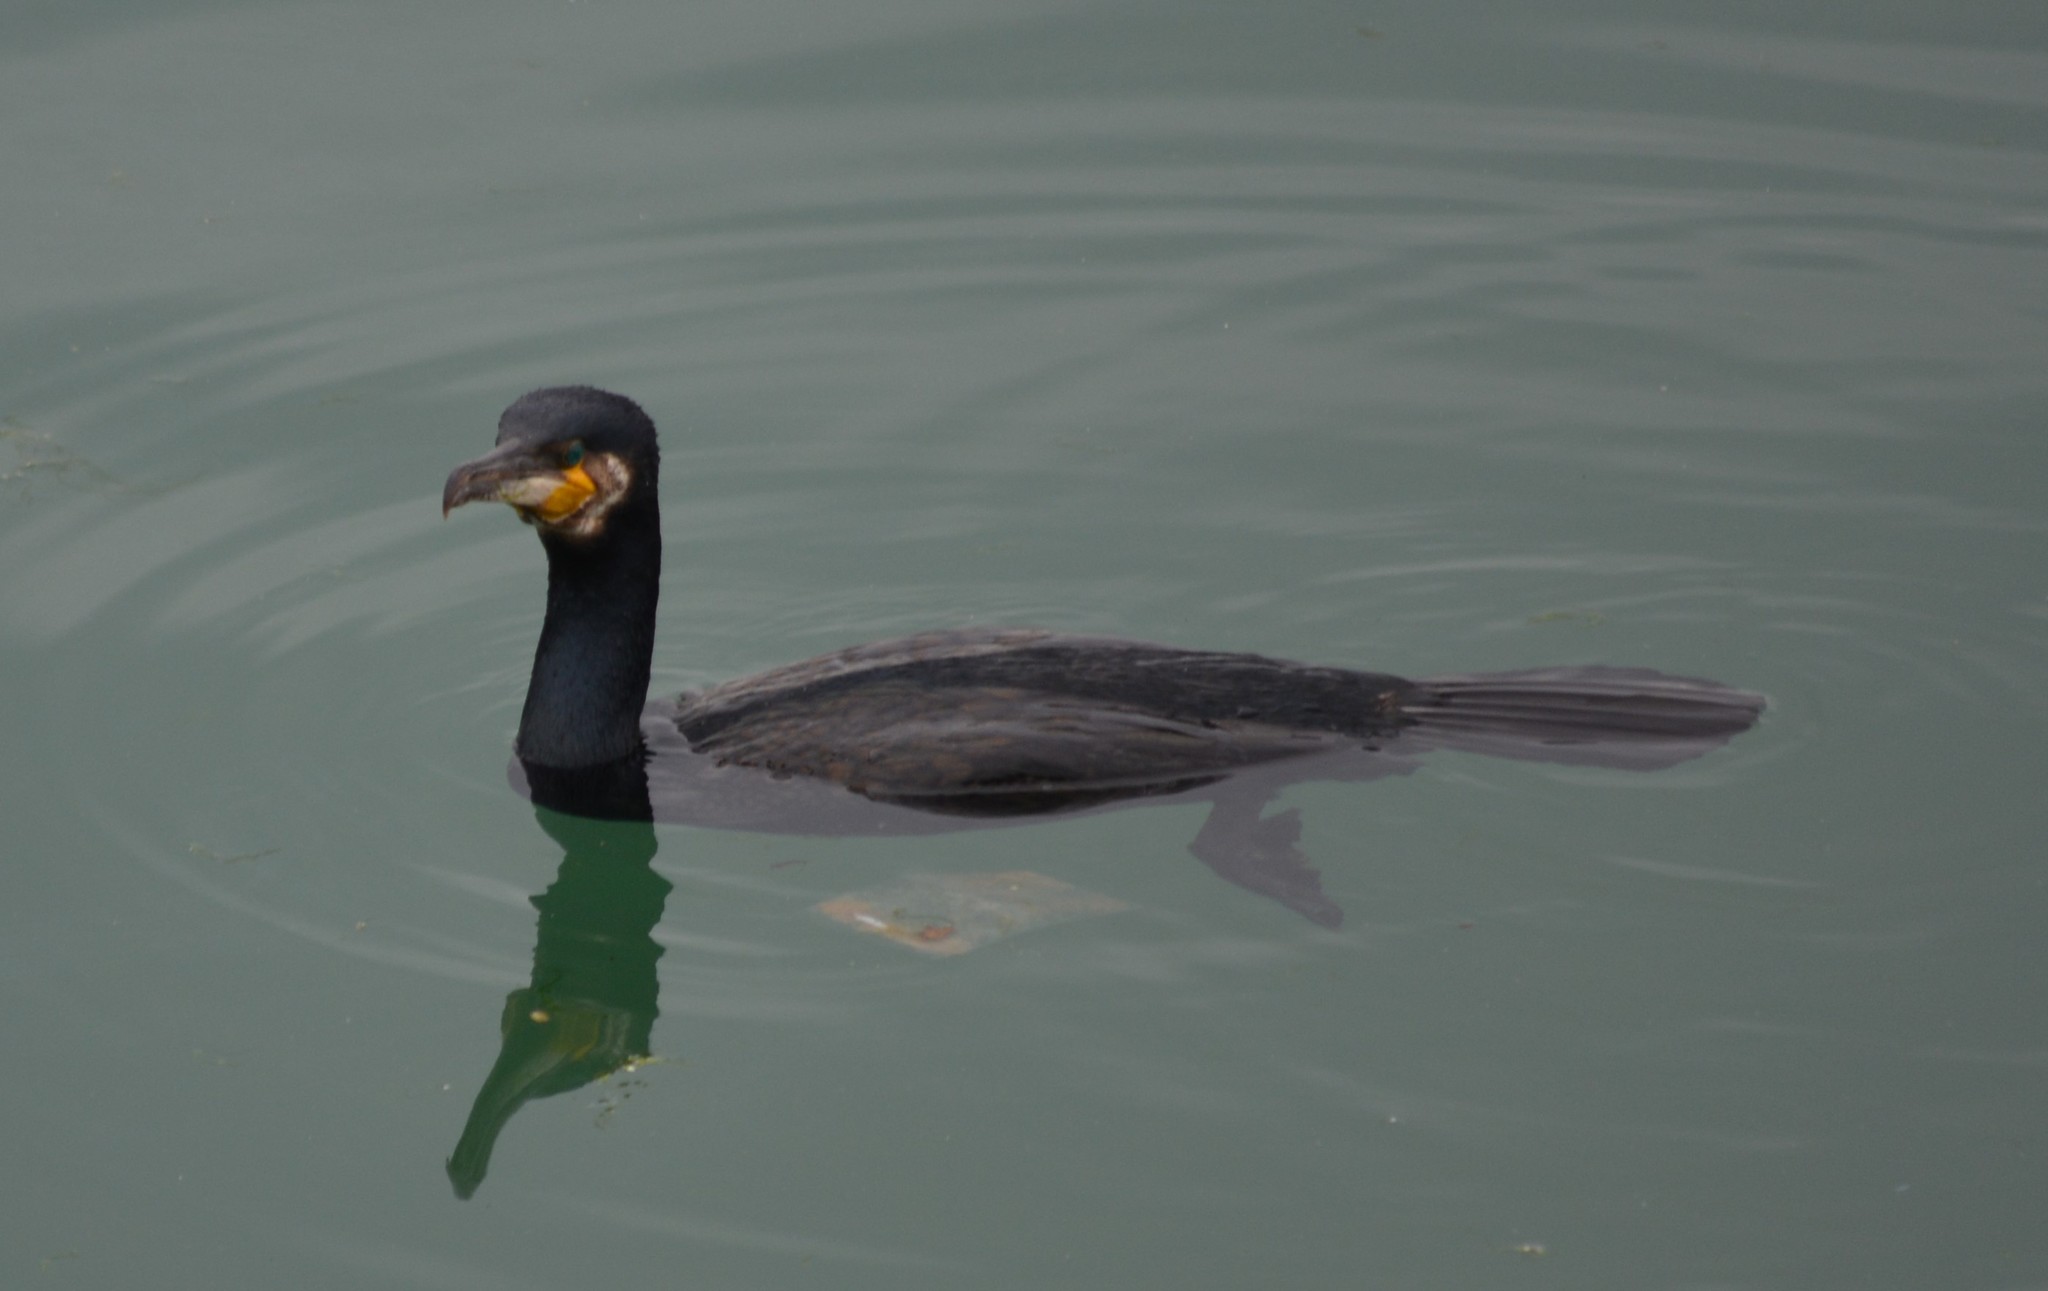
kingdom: Animalia
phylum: Chordata
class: Aves
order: Suliformes
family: Phalacrocoracidae
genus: Phalacrocorax
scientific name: Phalacrocorax carbo
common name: Great cormorant
